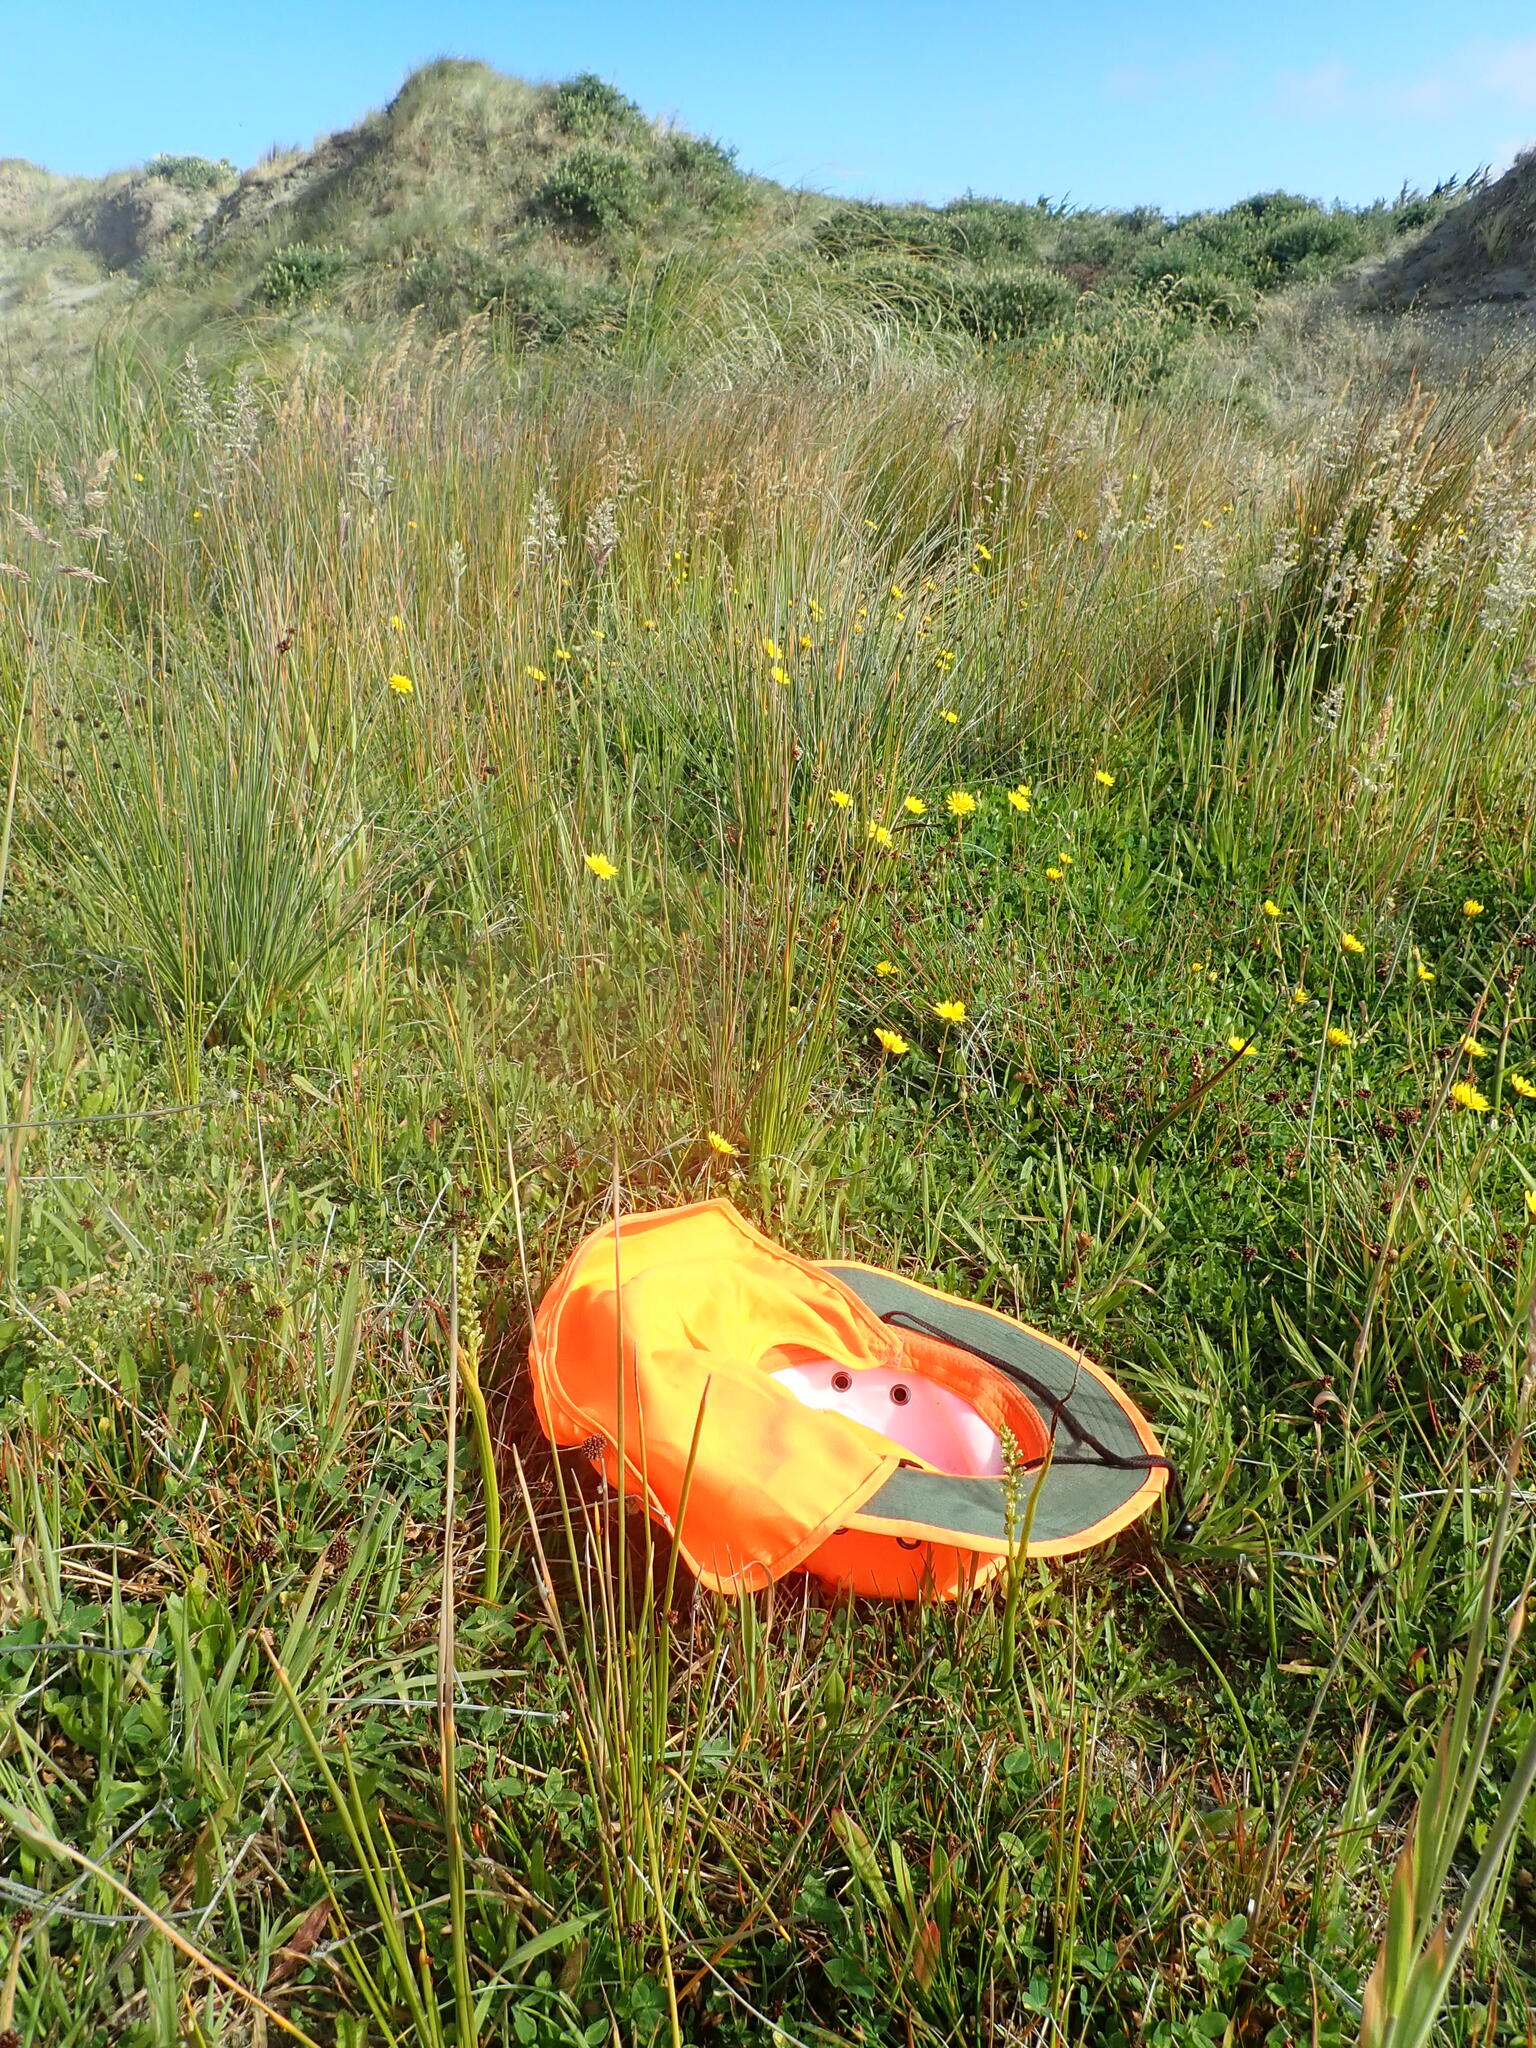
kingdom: Plantae
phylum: Tracheophyta
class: Liliopsida
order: Asparagales
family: Orchidaceae
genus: Microtis
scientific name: Microtis unifolia
